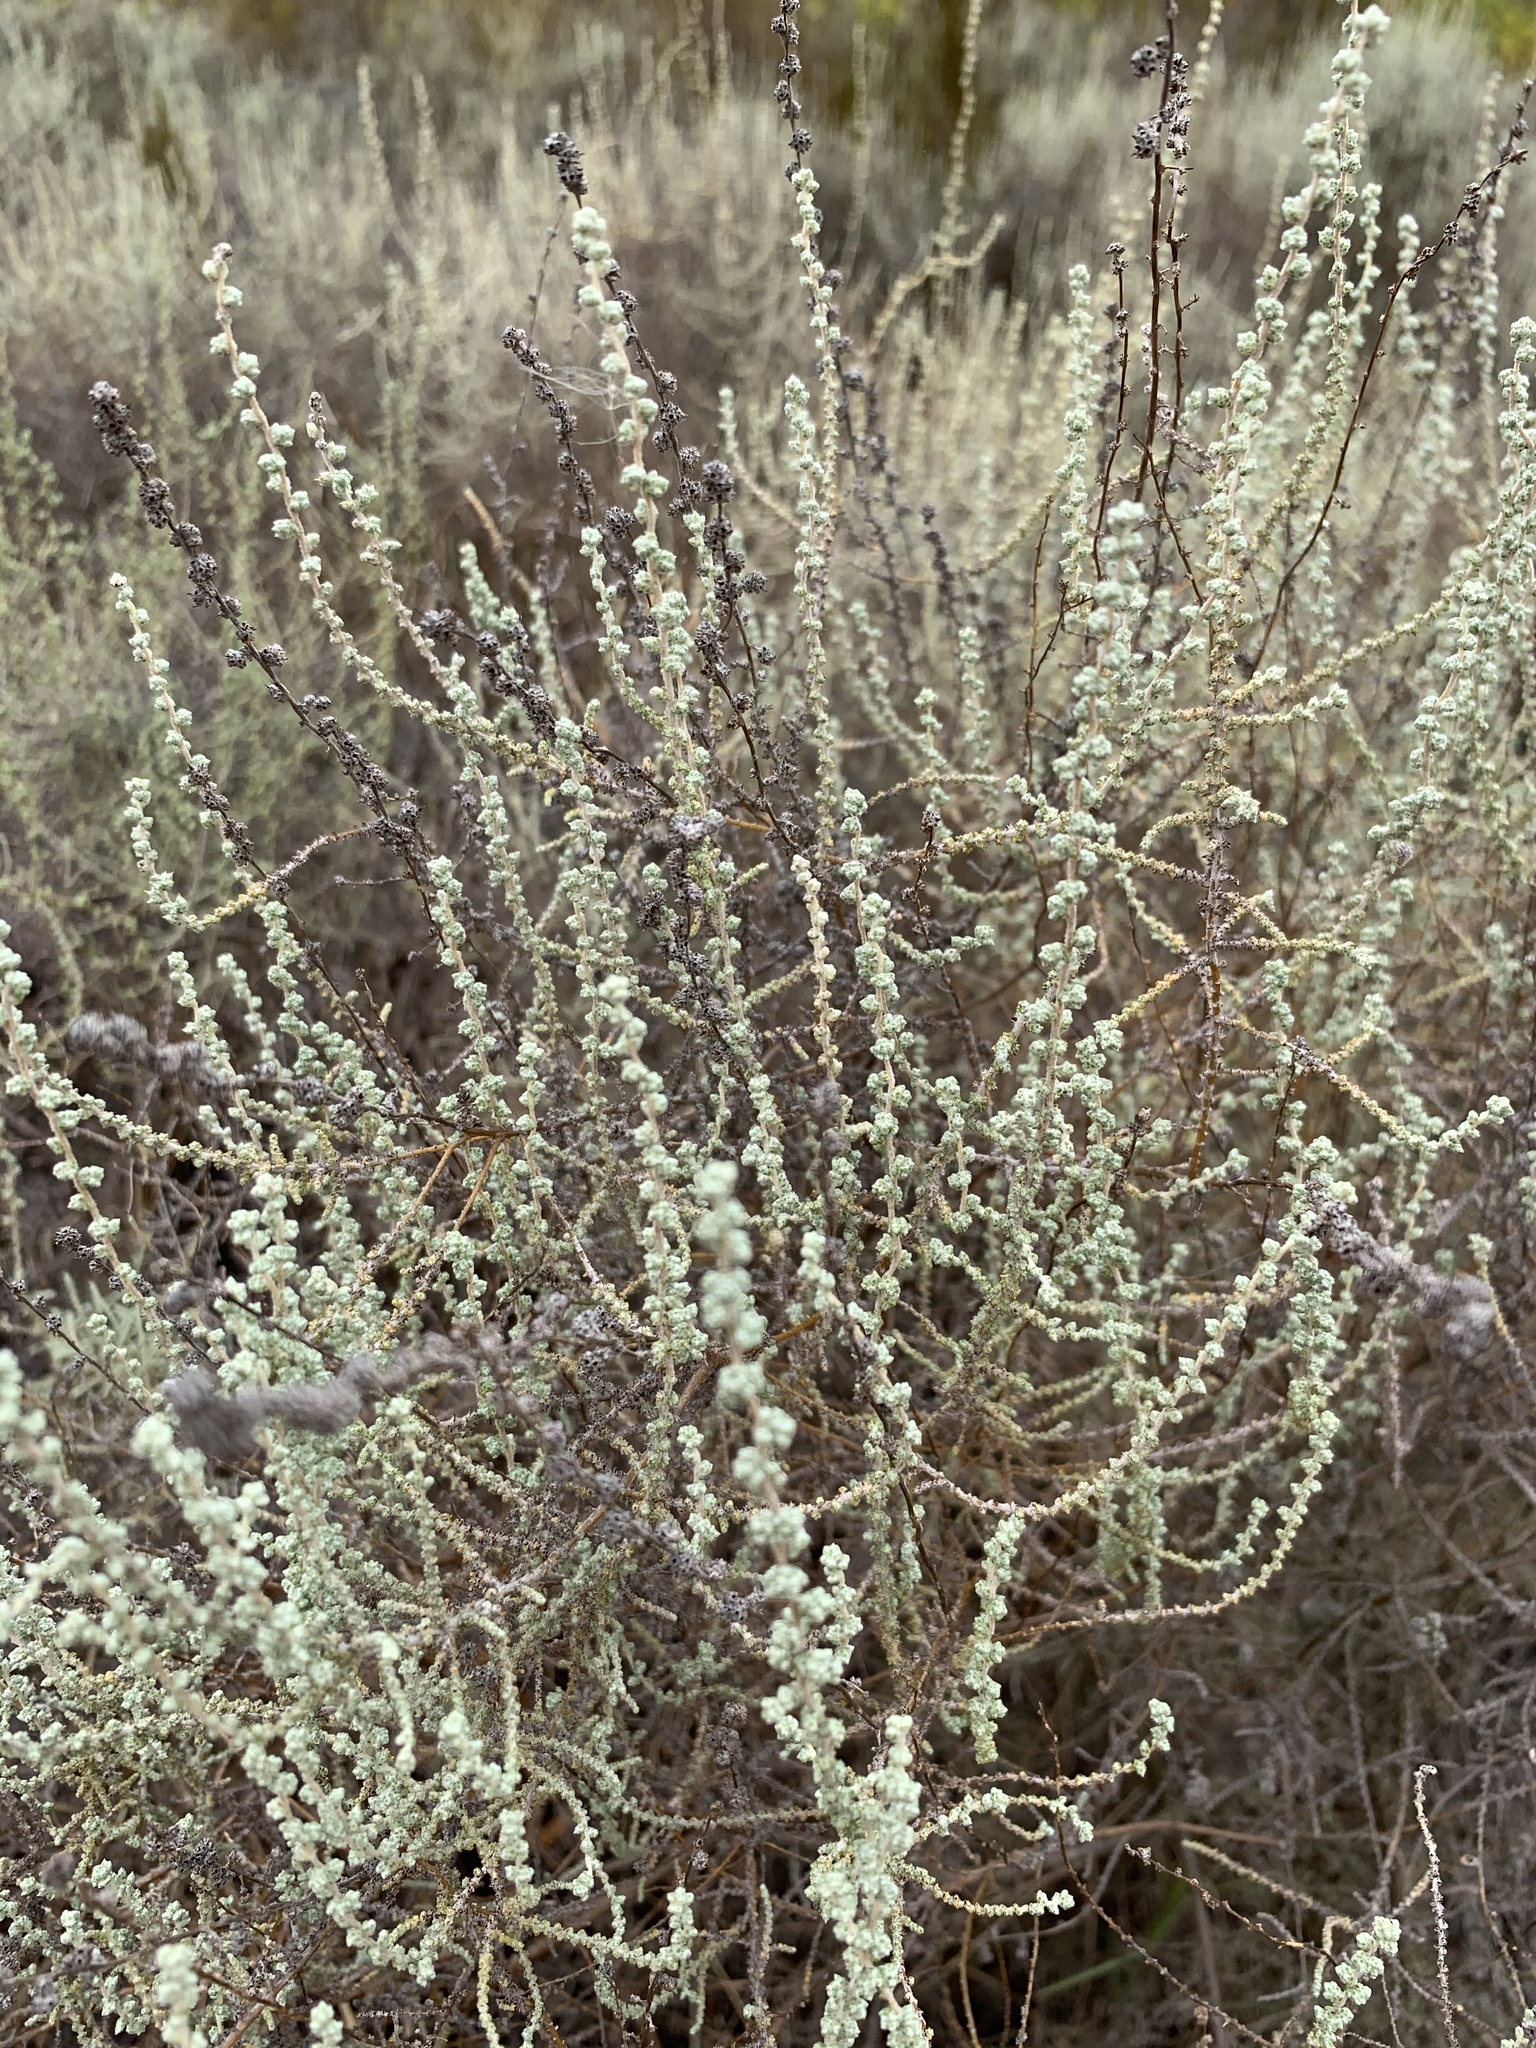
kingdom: Plantae
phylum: Tracheophyta
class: Magnoliopsida
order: Asterales
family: Asteraceae
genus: Seriphium
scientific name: Seriphium plumosum
